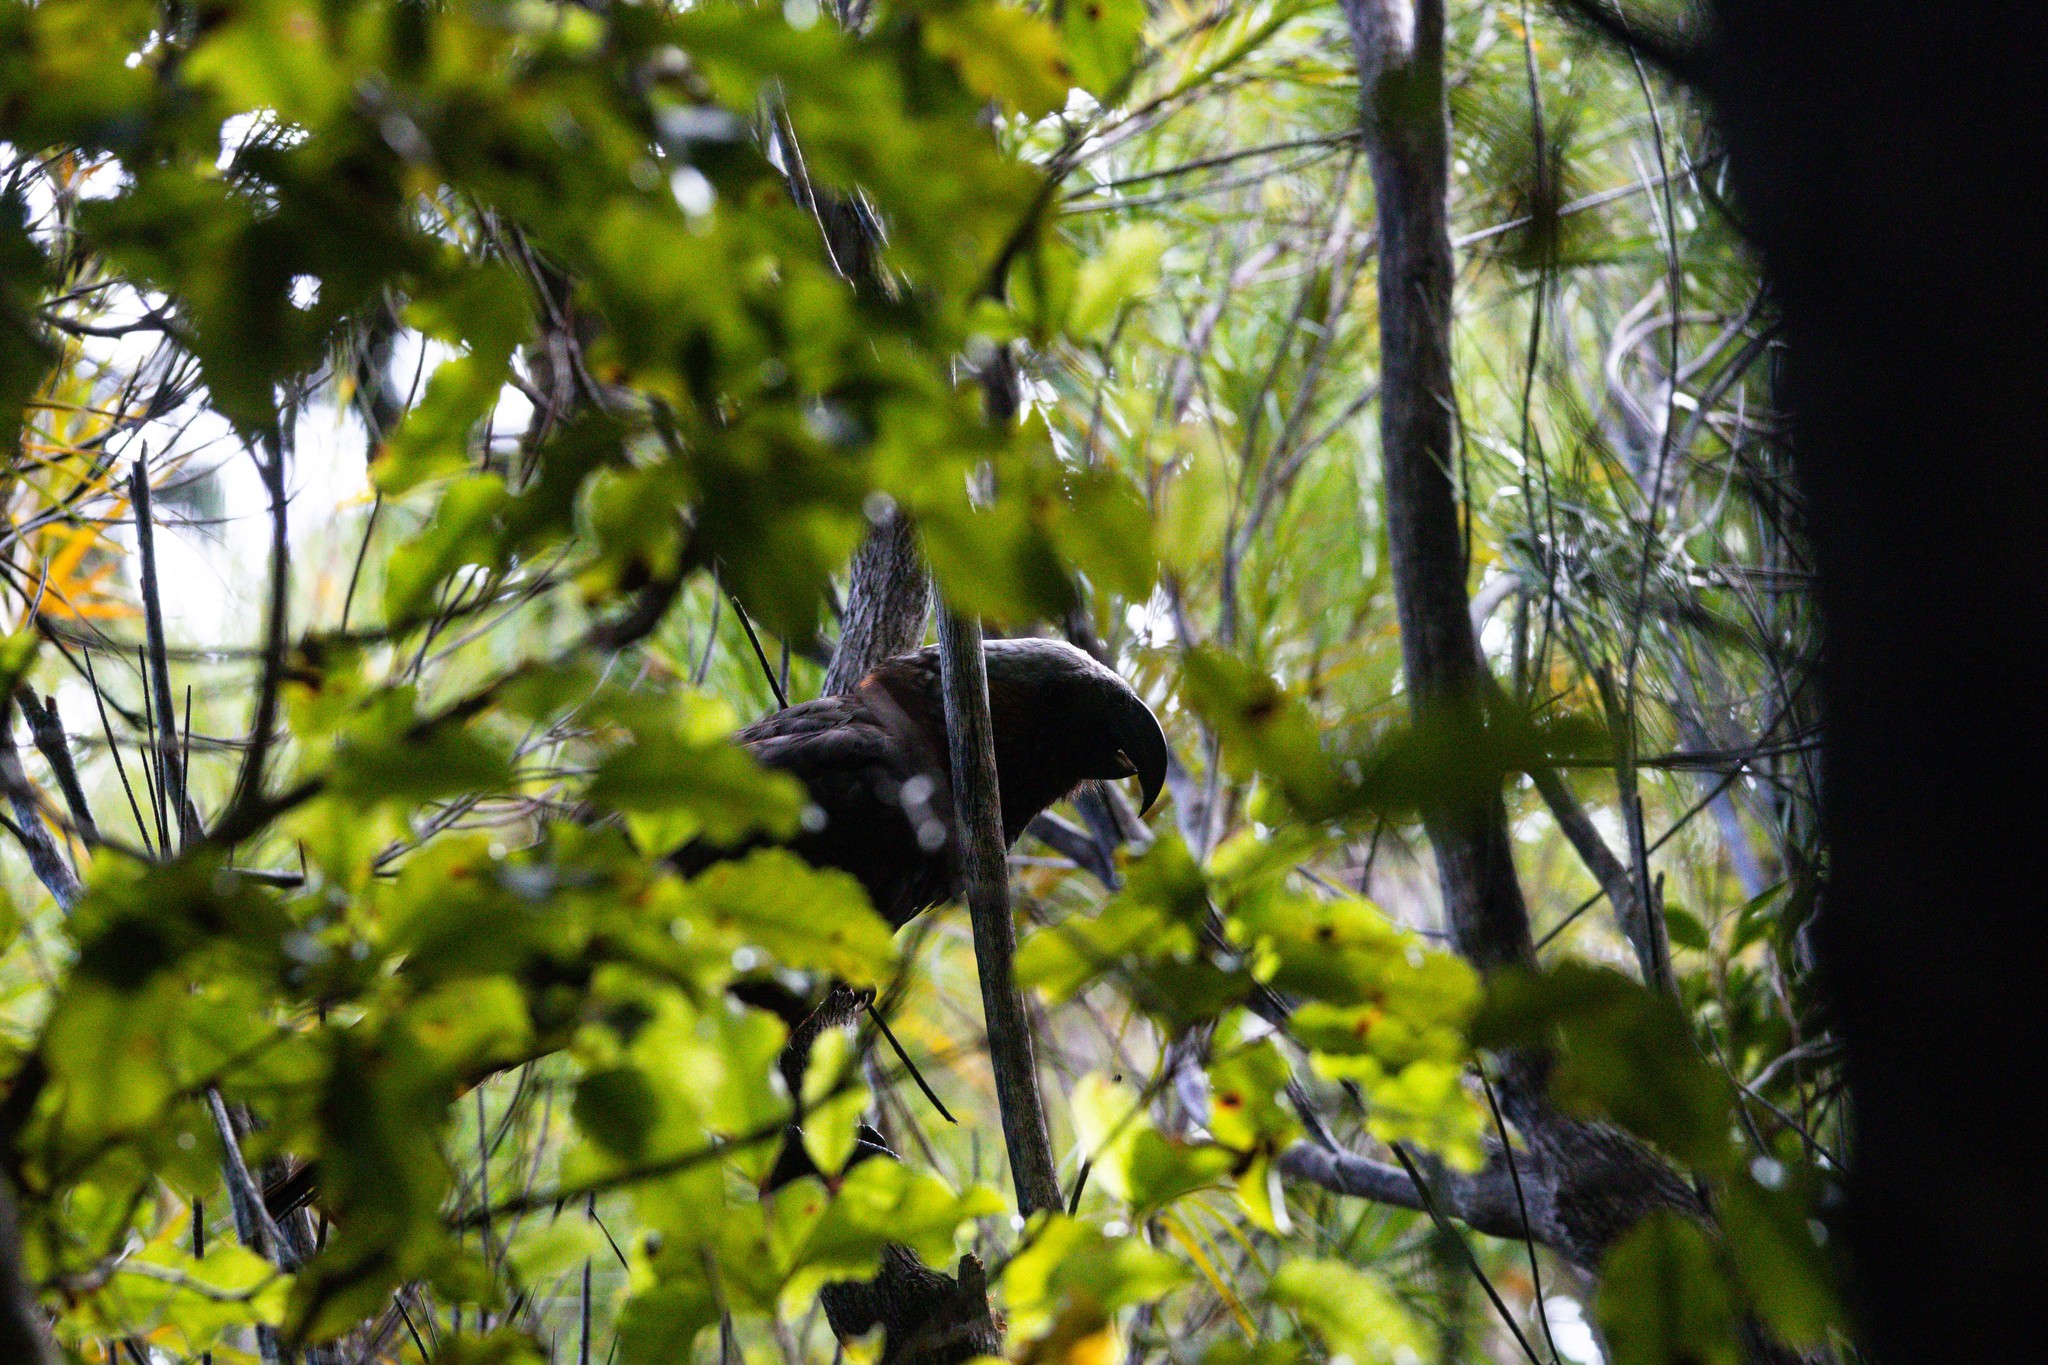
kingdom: Animalia
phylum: Chordata
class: Aves
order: Psittaciformes
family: Psittacidae
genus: Nestor
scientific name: Nestor meridionalis
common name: New zealand kaka
